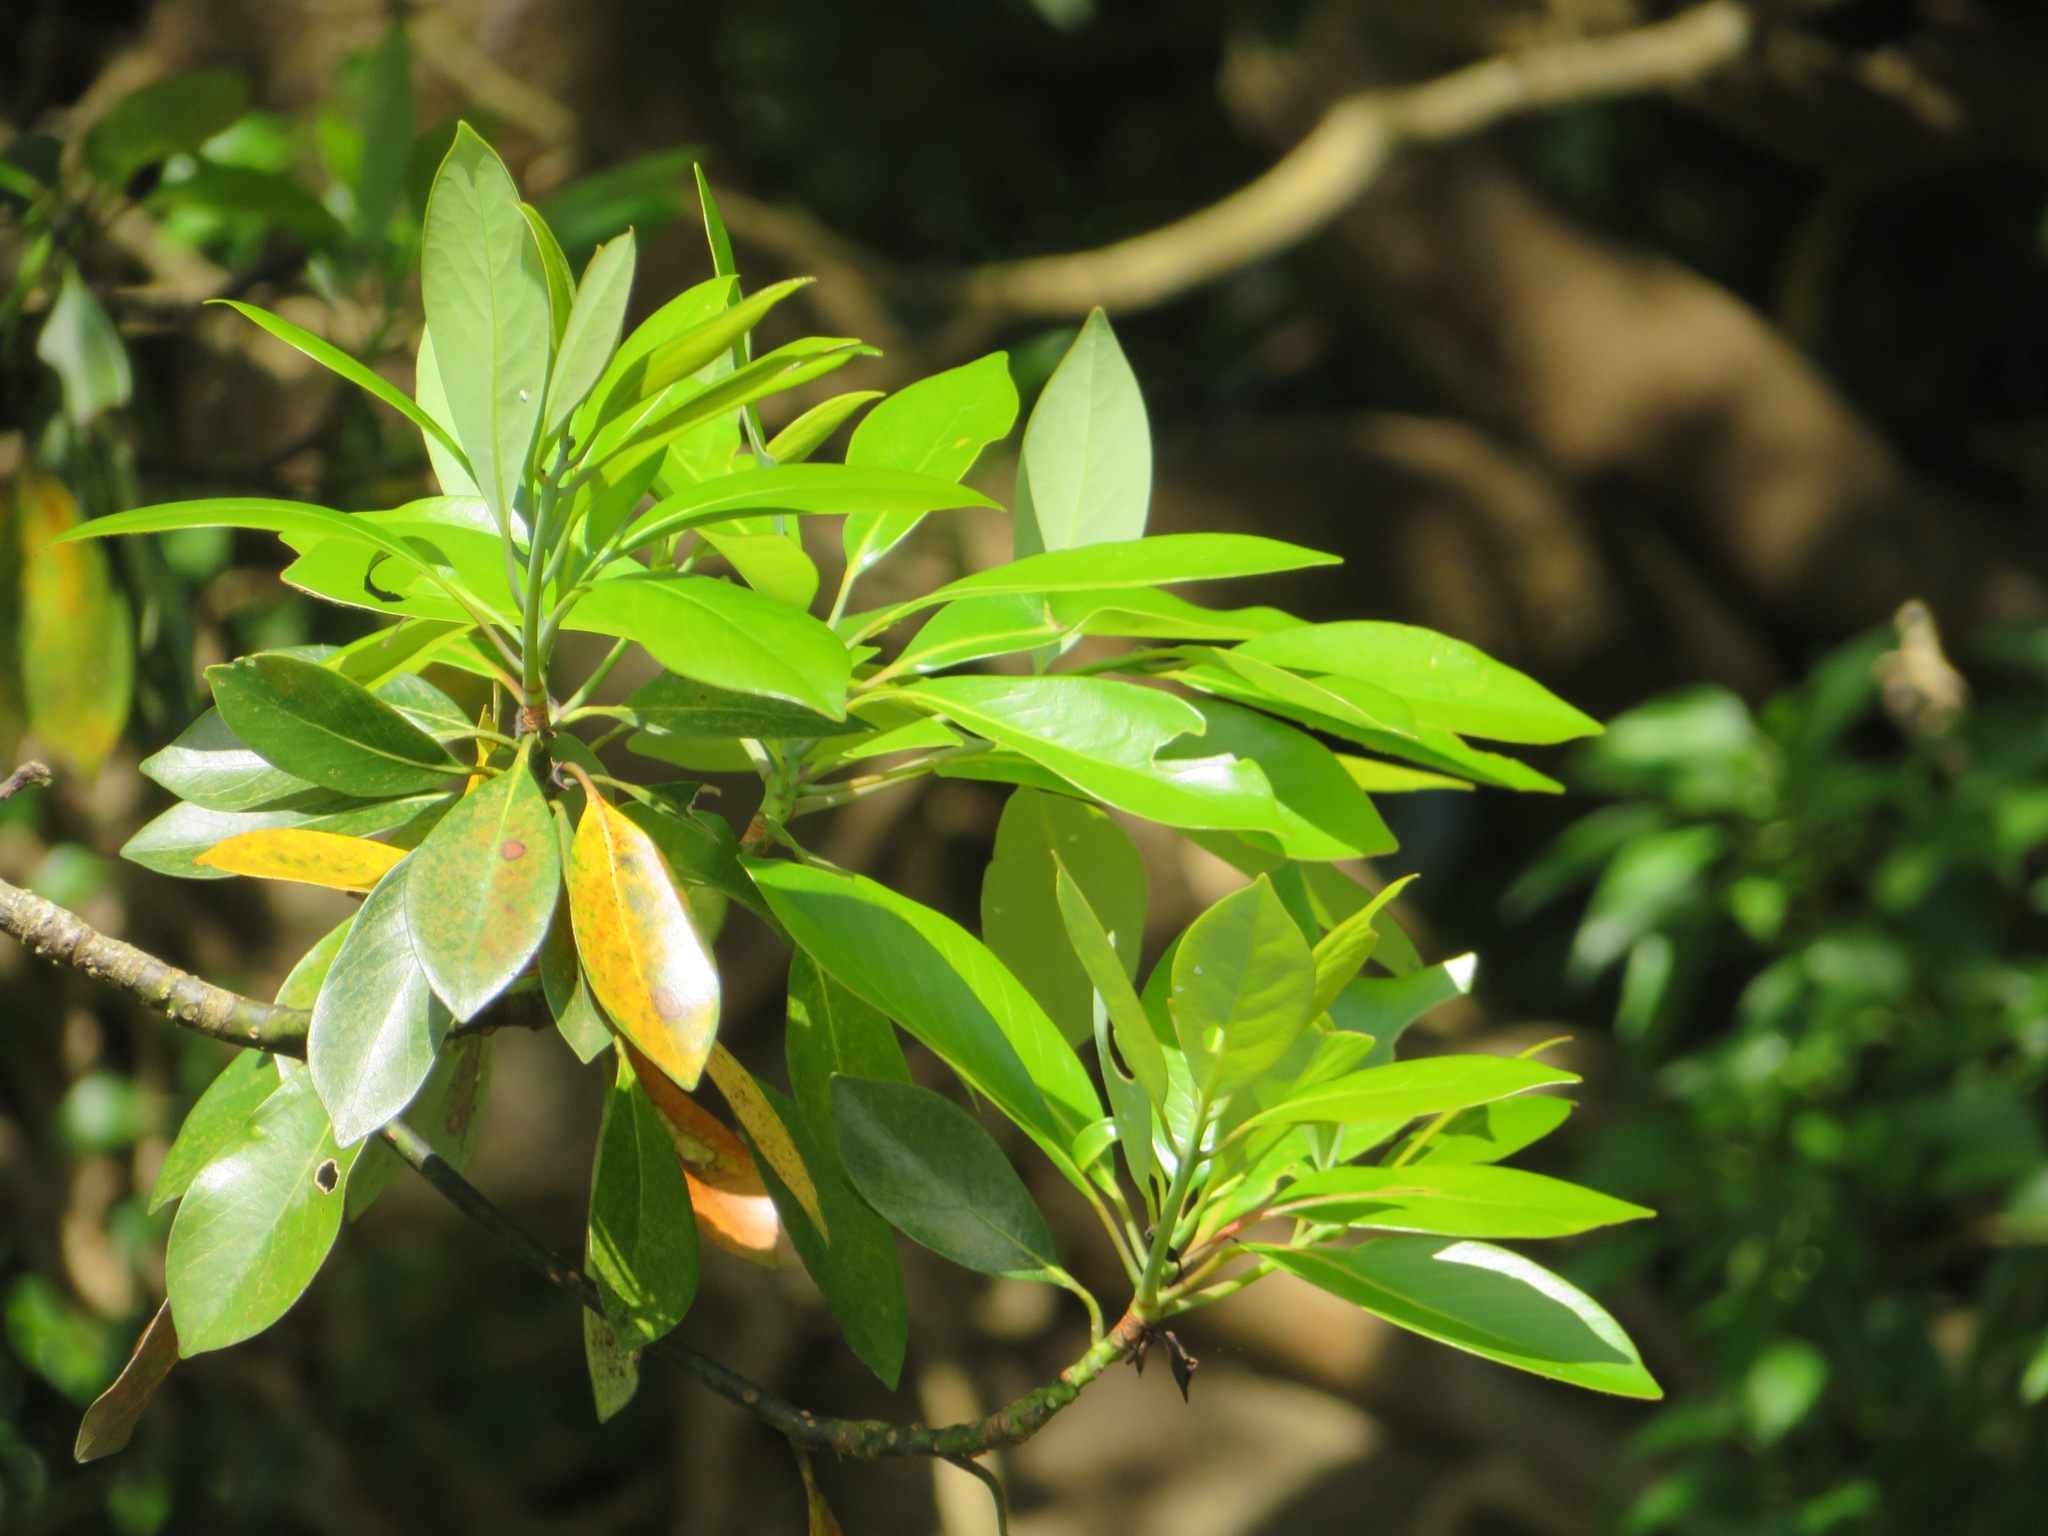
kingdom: Plantae
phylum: Tracheophyta
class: Magnoliopsida
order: Laurales
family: Lauraceae
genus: Machilus
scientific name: Machilus thunbergii
